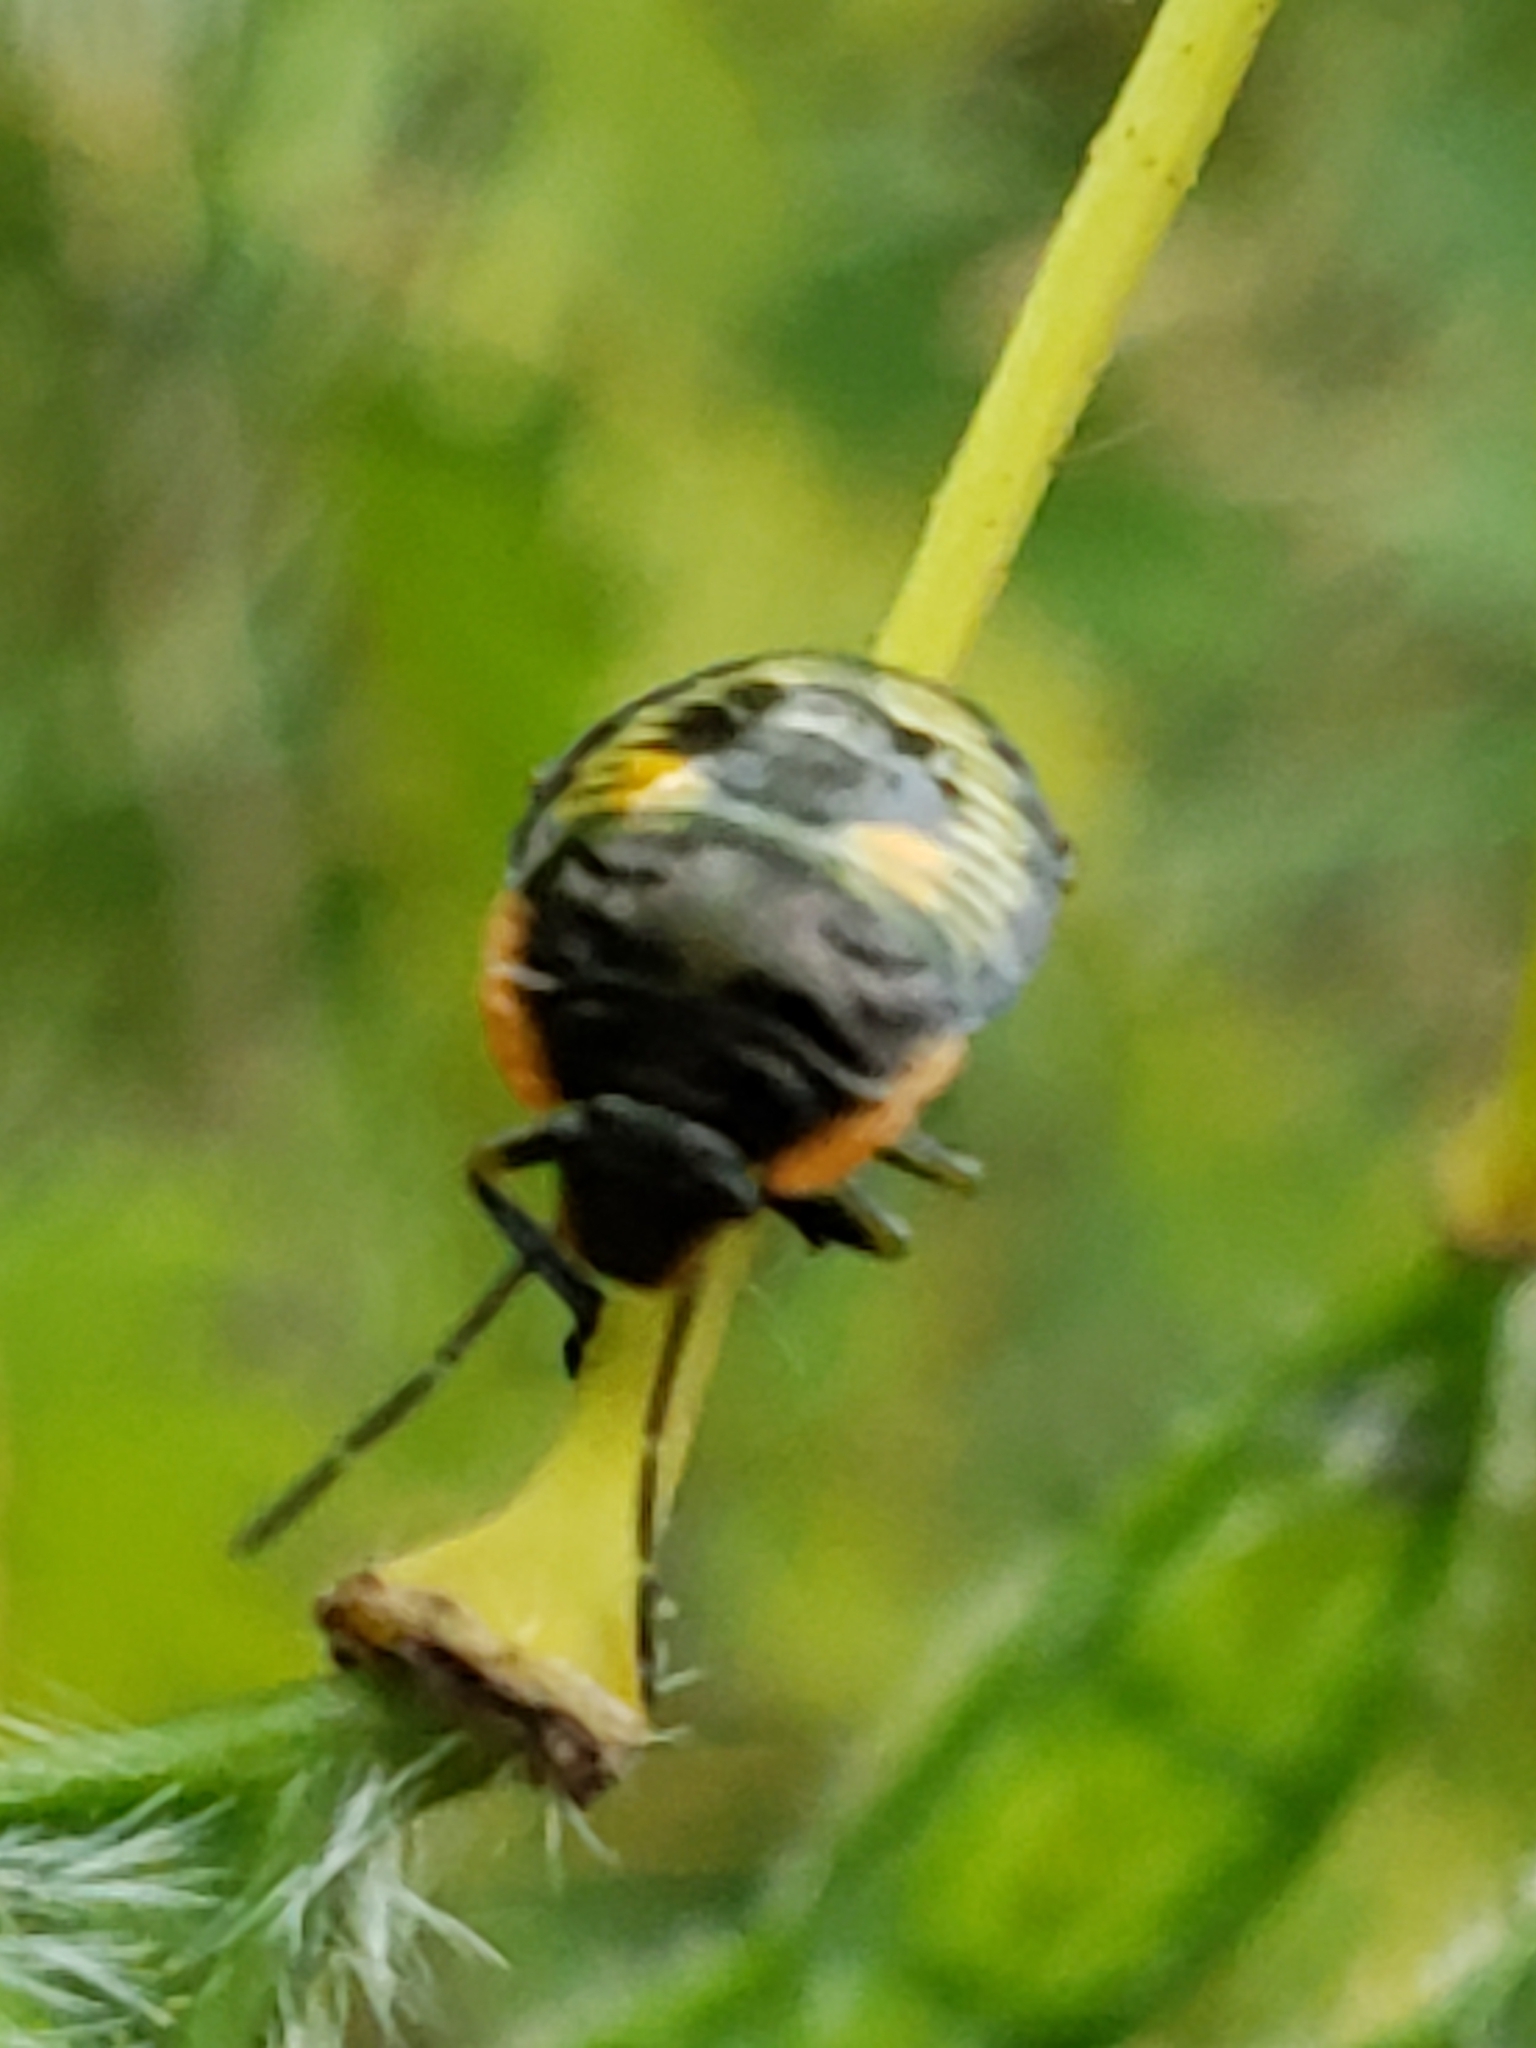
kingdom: Animalia
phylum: Arthropoda
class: Insecta
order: Hemiptera
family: Pentatomidae
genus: Chinavia
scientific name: Chinavia hilaris
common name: Green stink bug
